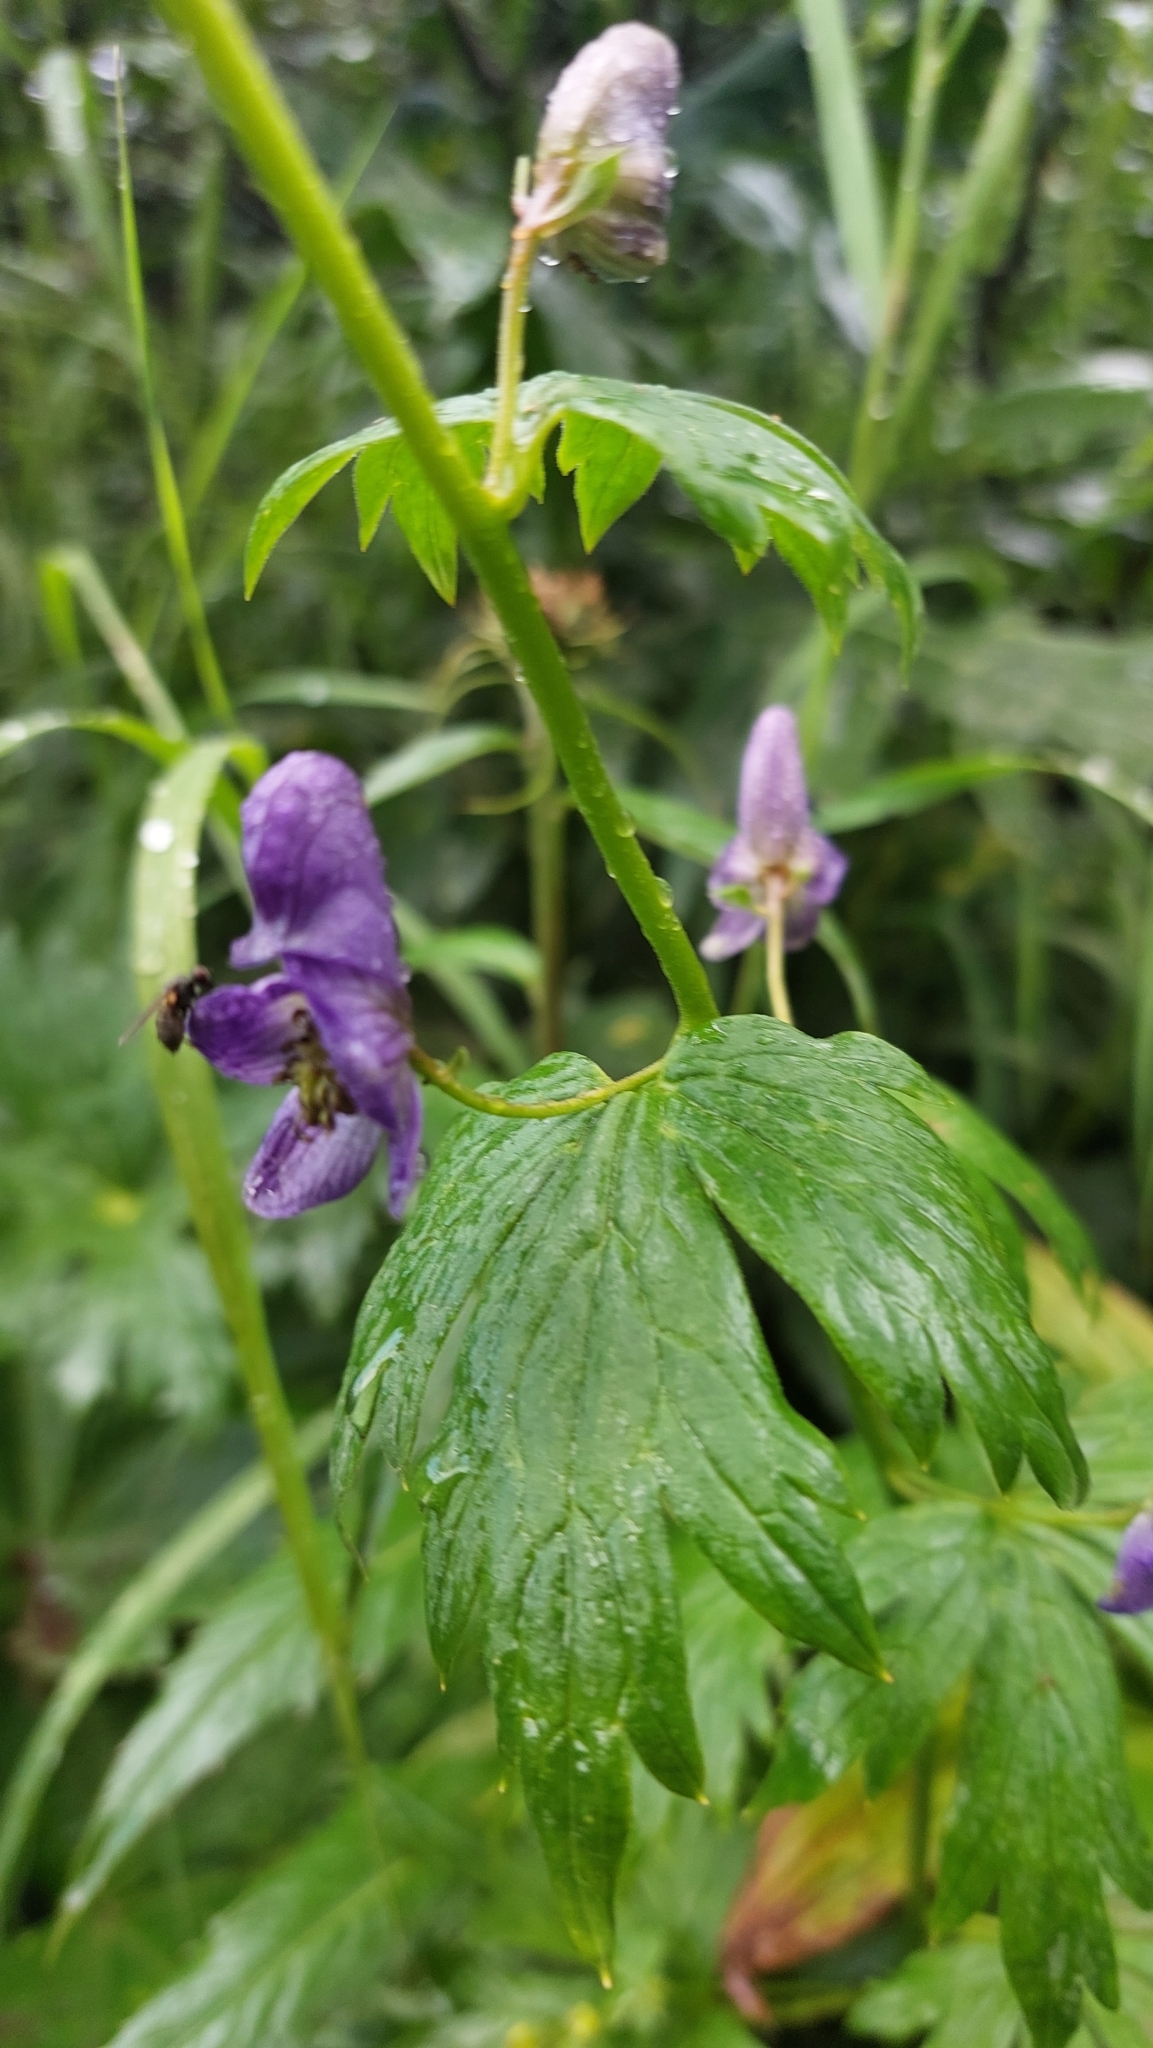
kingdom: Plantae
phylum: Tracheophyta
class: Magnoliopsida
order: Ranunculales
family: Ranunculaceae
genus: Aconitum
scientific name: Aconitum fischeri
